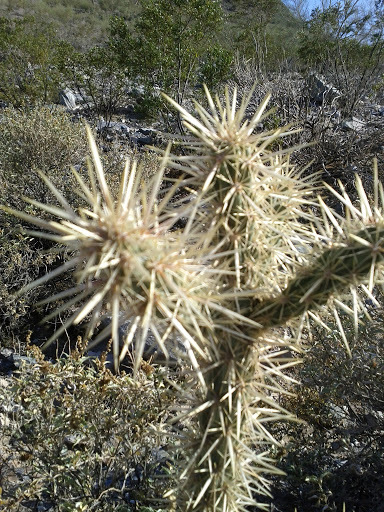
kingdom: Plantae
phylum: Tracheophyta
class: Magnoliopsida
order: Caryophyllales
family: Cactaceae
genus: Cylindropuntia
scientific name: Cylindropuntia acanthocarpa
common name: Buckhorn cholla
